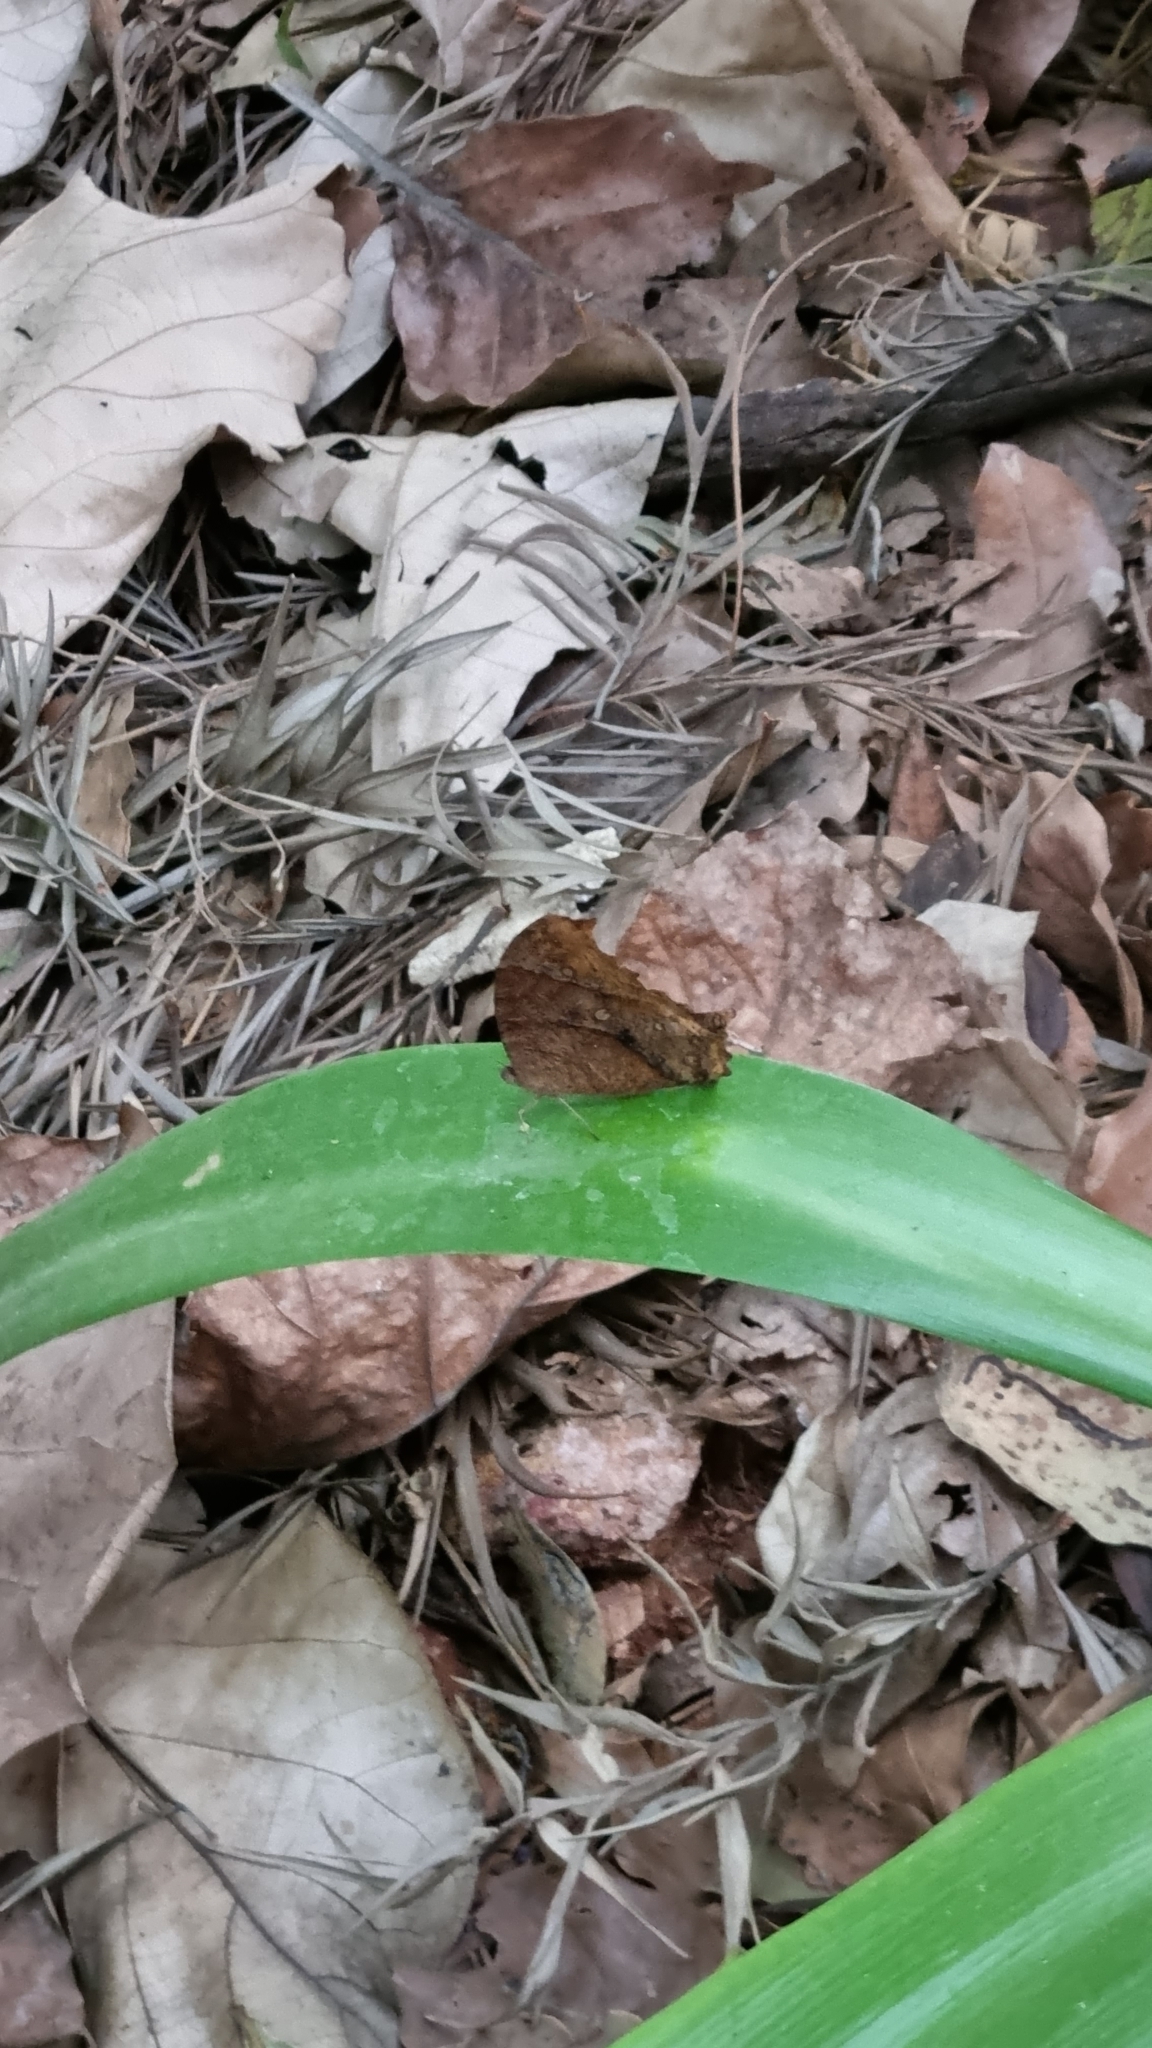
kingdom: Animalia
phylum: Arthropoda
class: Insecta
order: Lepidoptera
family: Nymphalidae
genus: Melanitis
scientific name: Melanitis leda
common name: Twilight brown
